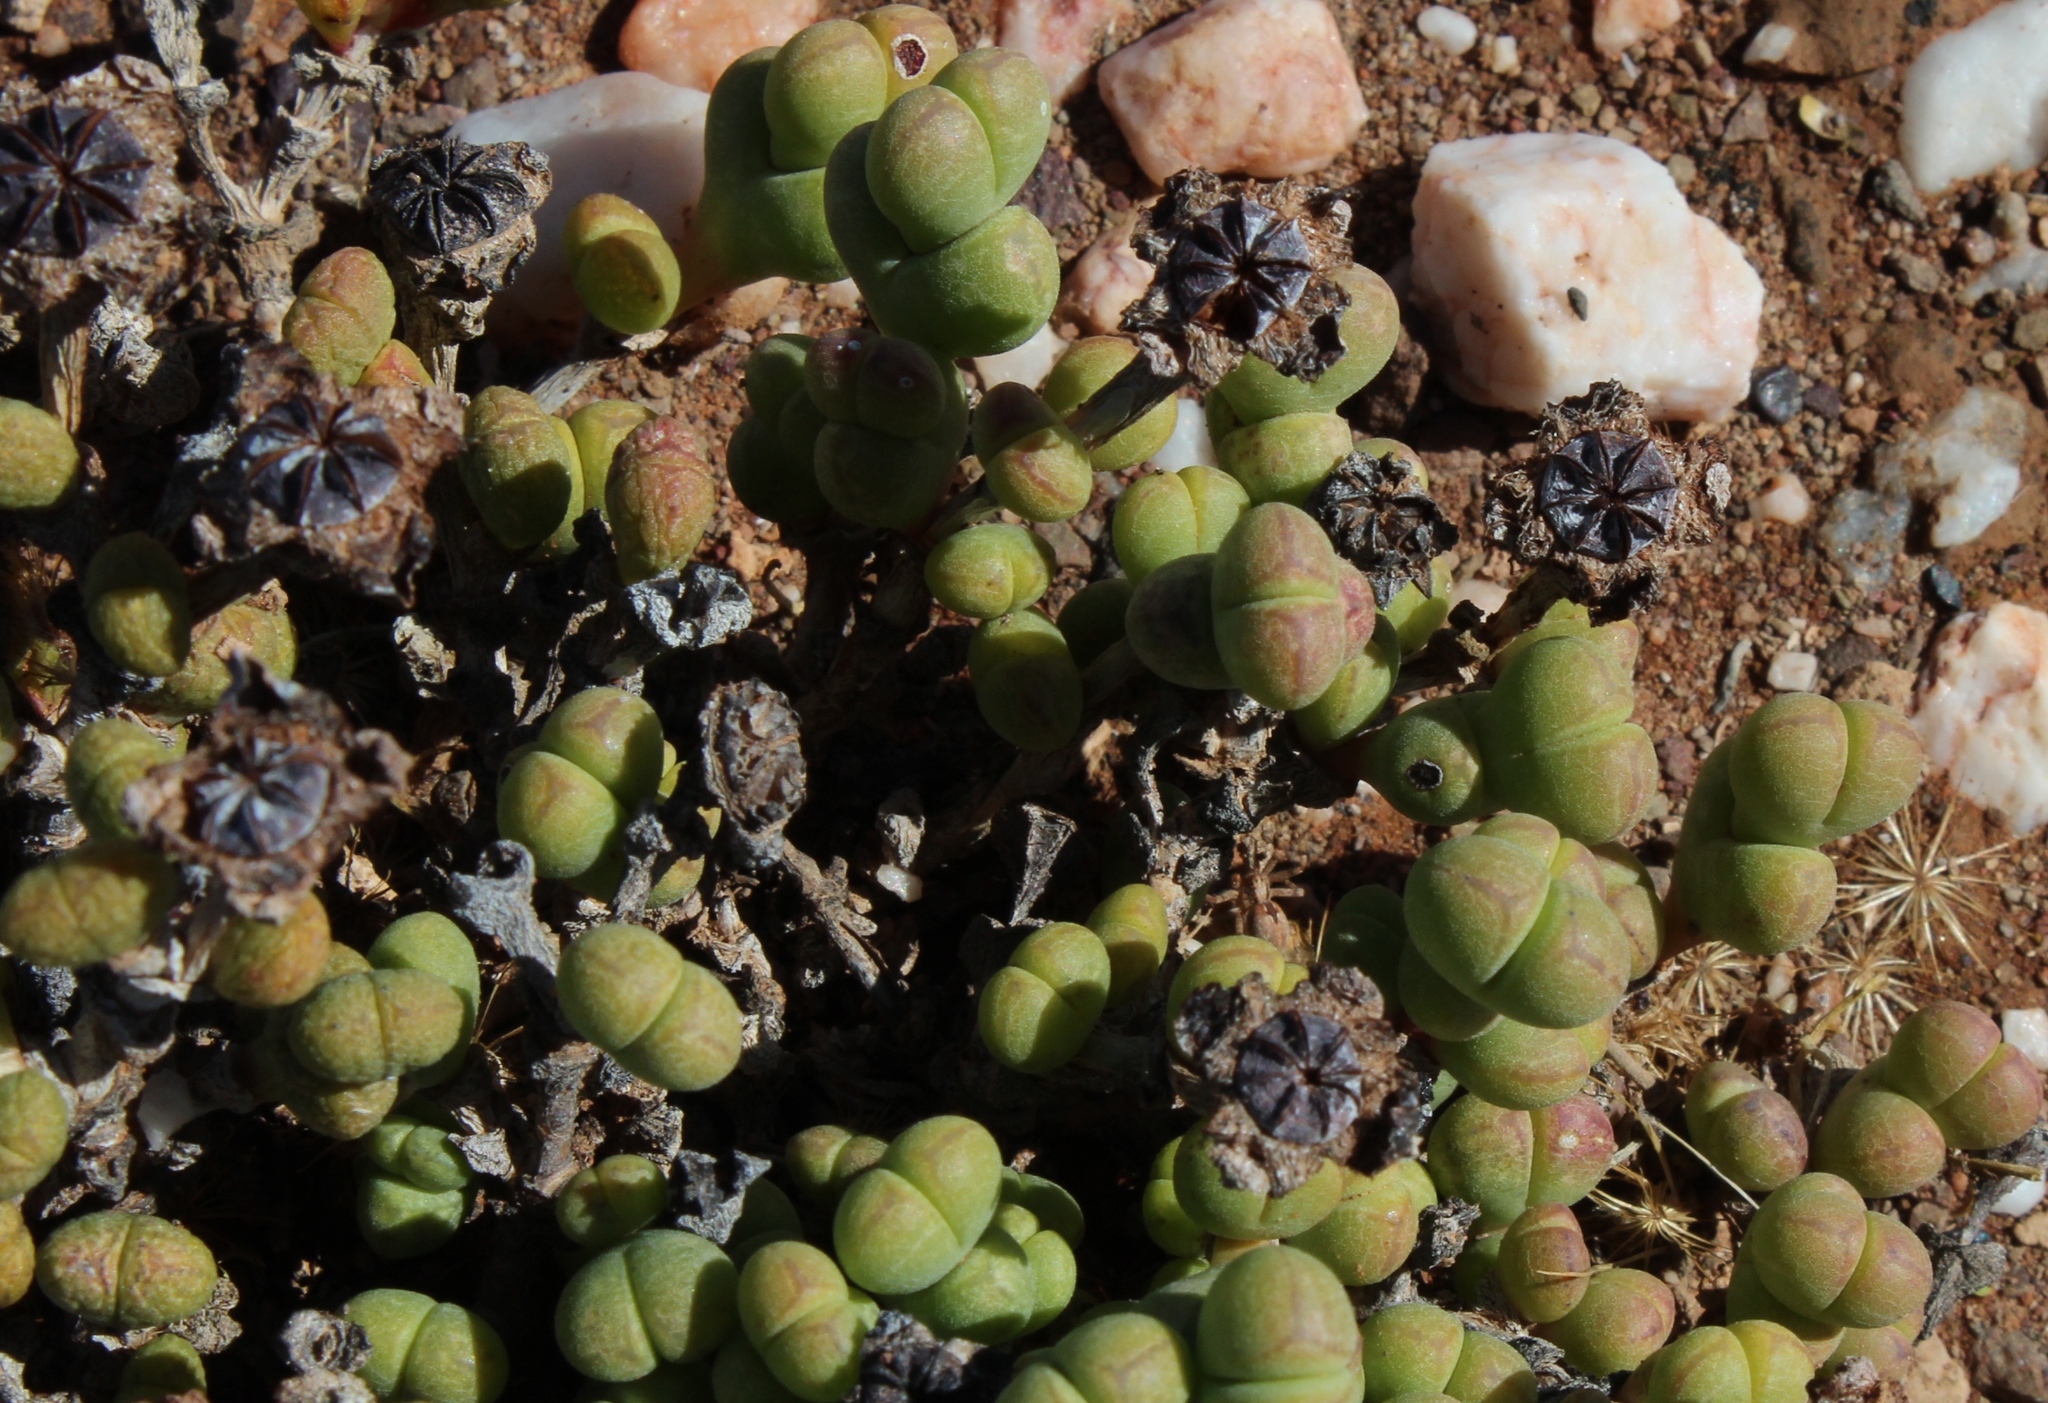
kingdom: Plantae
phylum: Tracheophyta
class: Magnoliopsida
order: Caryophyllales
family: Aizoaceae
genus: Octopoma
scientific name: Octopoma quadrisepalum
